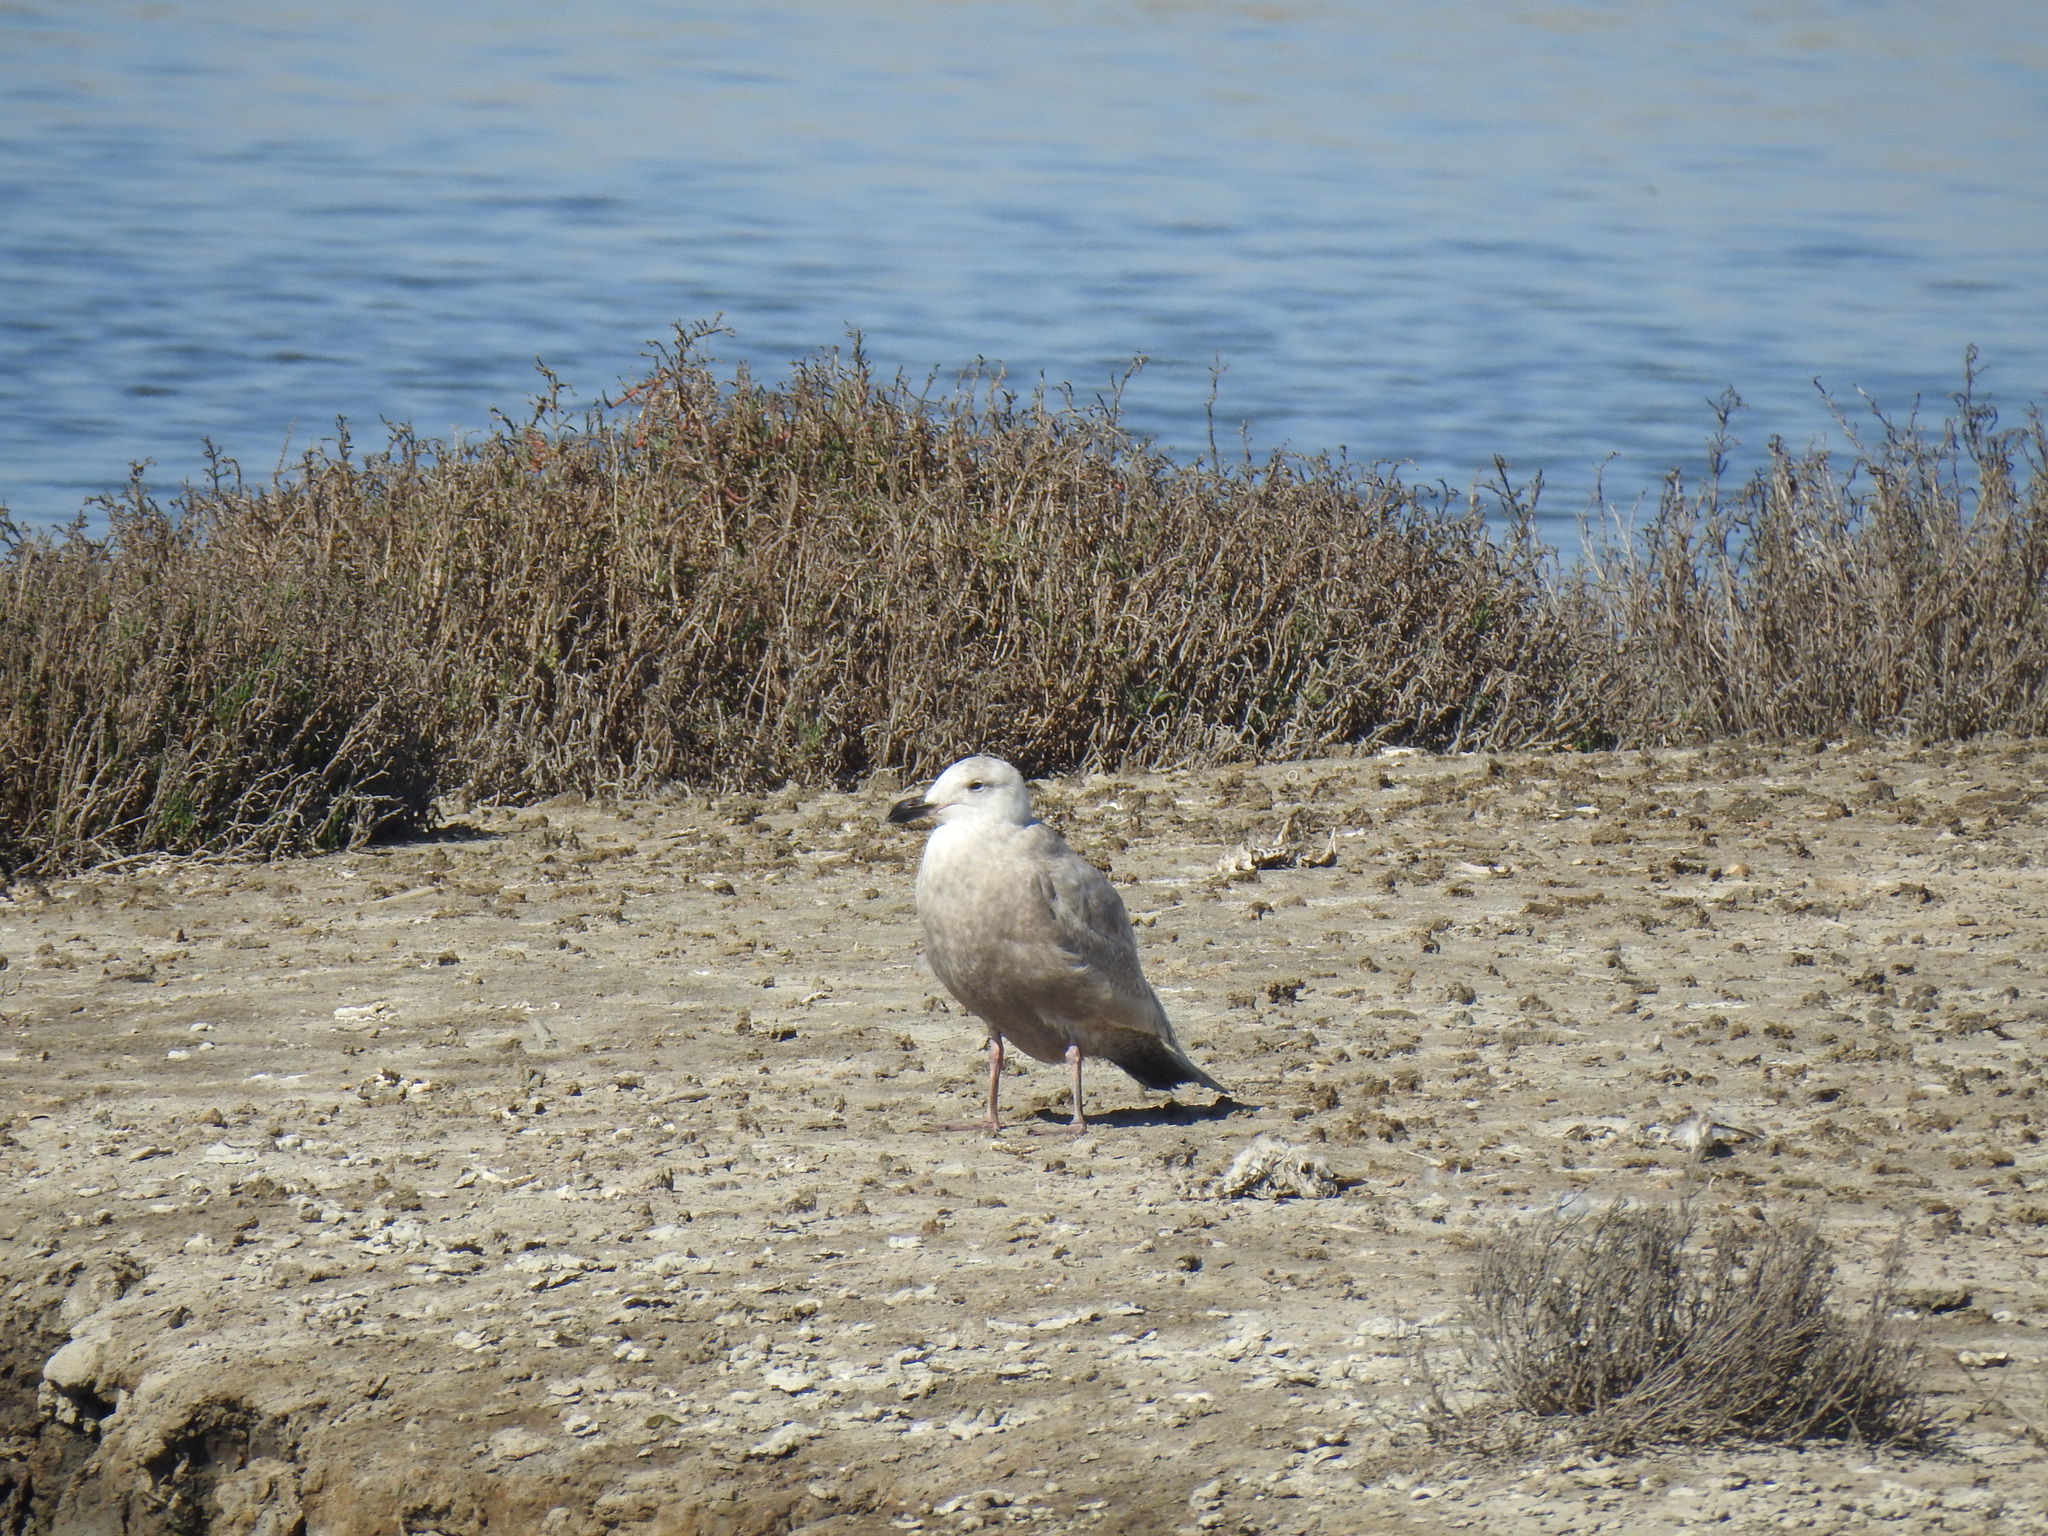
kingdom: Animalia
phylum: Chordata
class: Aves
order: Charadriiformes
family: Laridae
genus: Larus
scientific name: Larus
